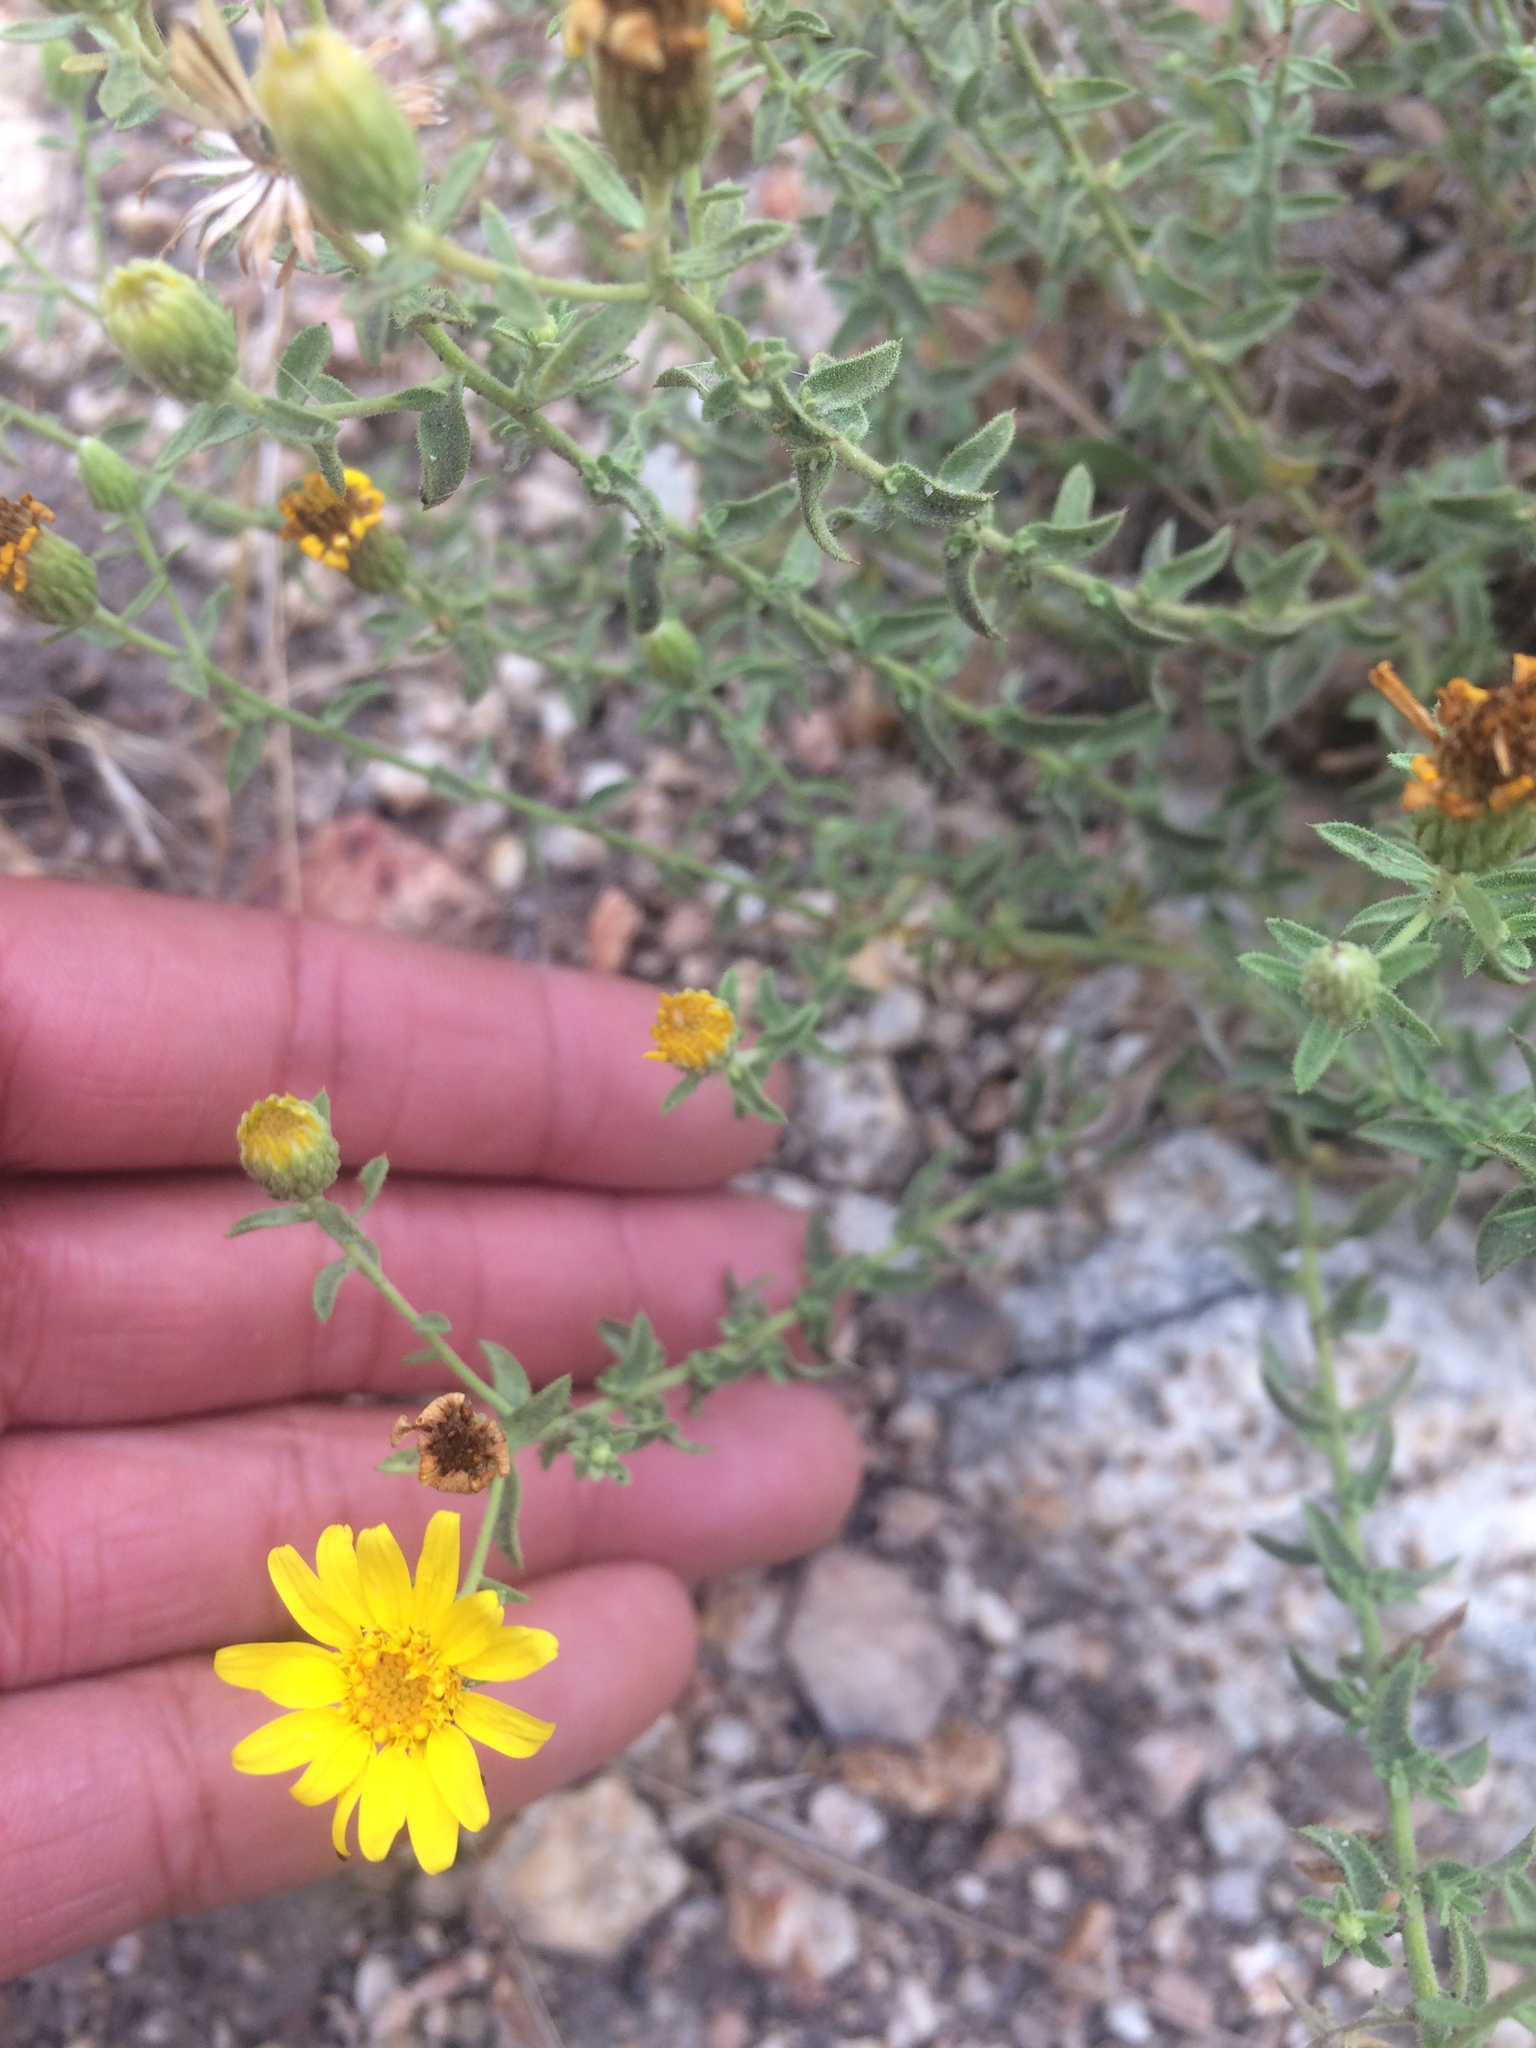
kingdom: Plantae
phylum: Tracheophyta
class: Magnoliopsida
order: Asterales
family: Asteraceae
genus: Heterotheca
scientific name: Heterotheca cinerascens
